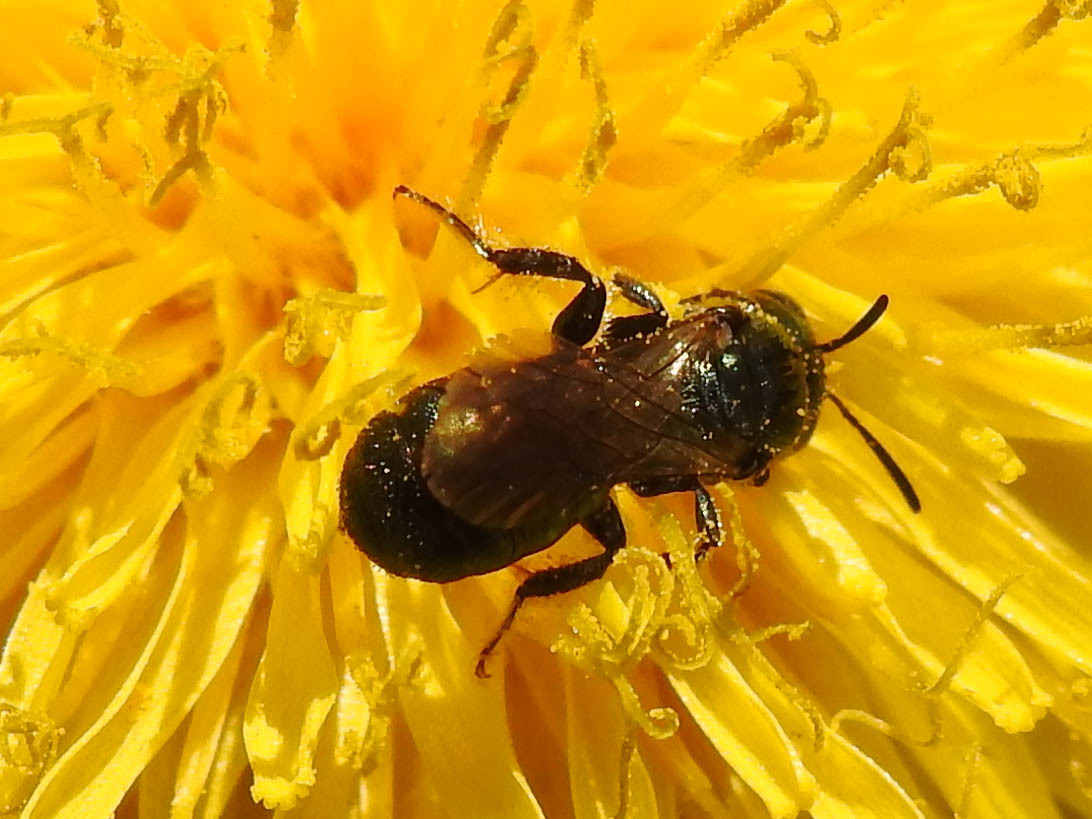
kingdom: Animalia
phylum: Arthropoda
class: Insecta
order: Hymenoptera
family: Apidae
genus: Zadontomerus
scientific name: Zadontomerus
